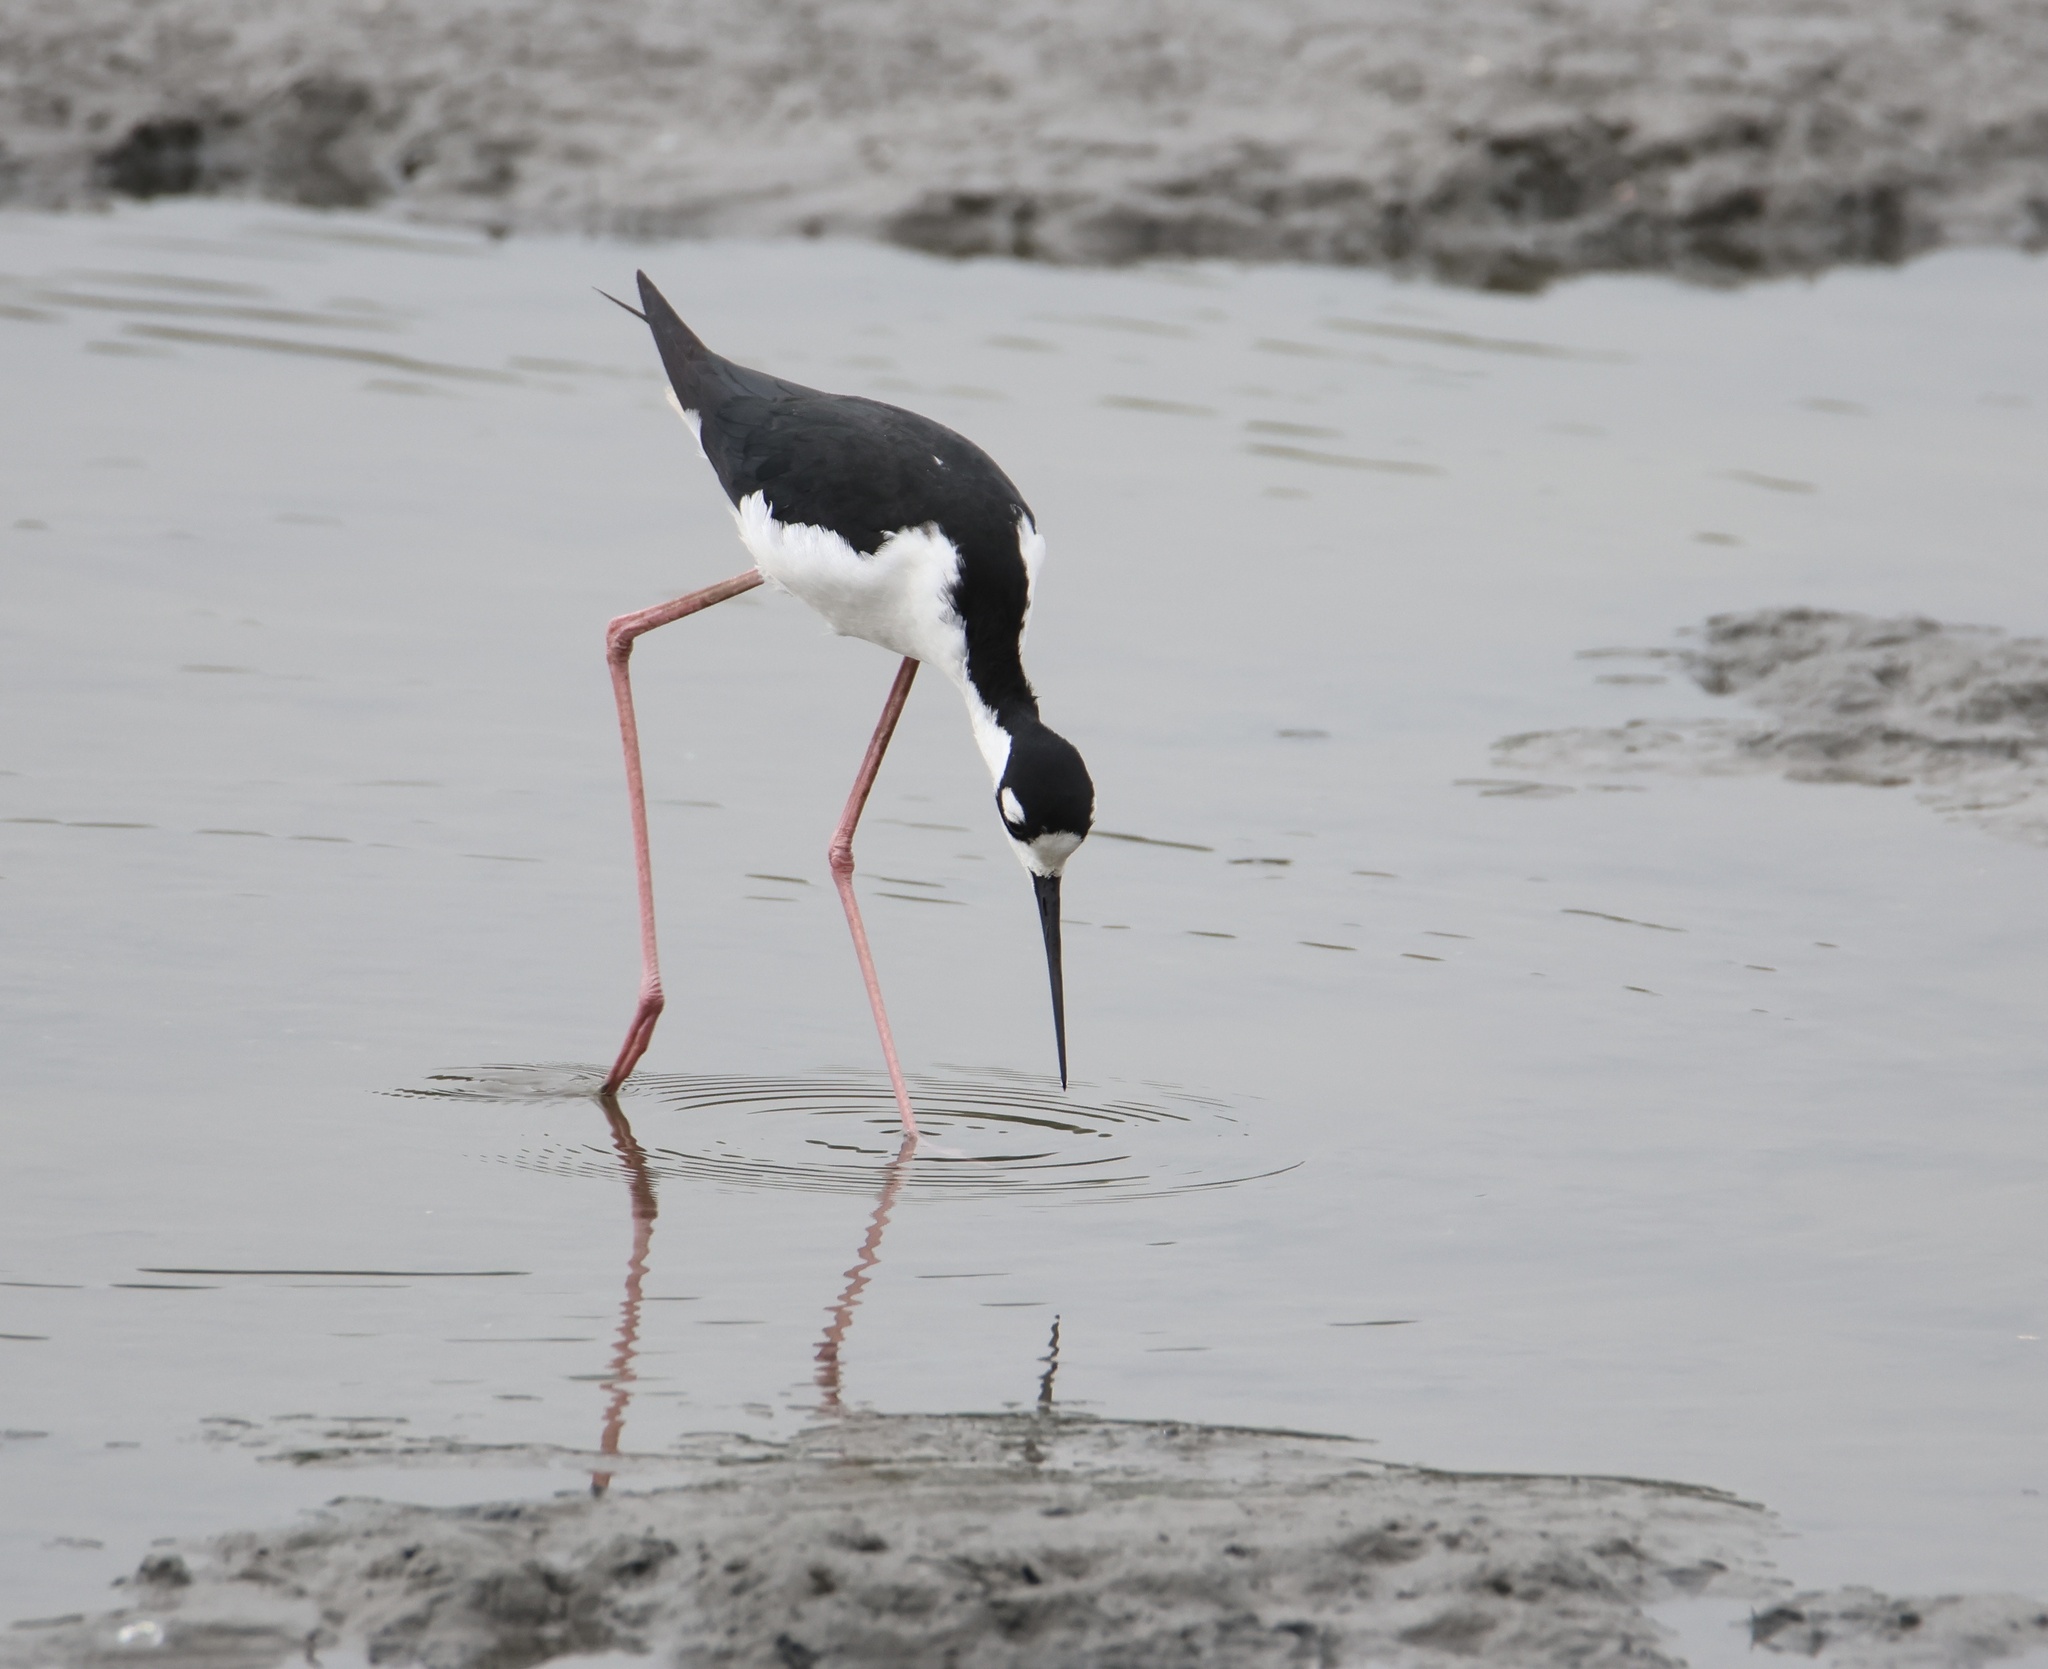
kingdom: Animalia
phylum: Chordata
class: Aves
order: Charadriiformes
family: Recurvirostridae
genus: Himantopus
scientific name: Himantopus mexicanus
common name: Black-necked stilt
